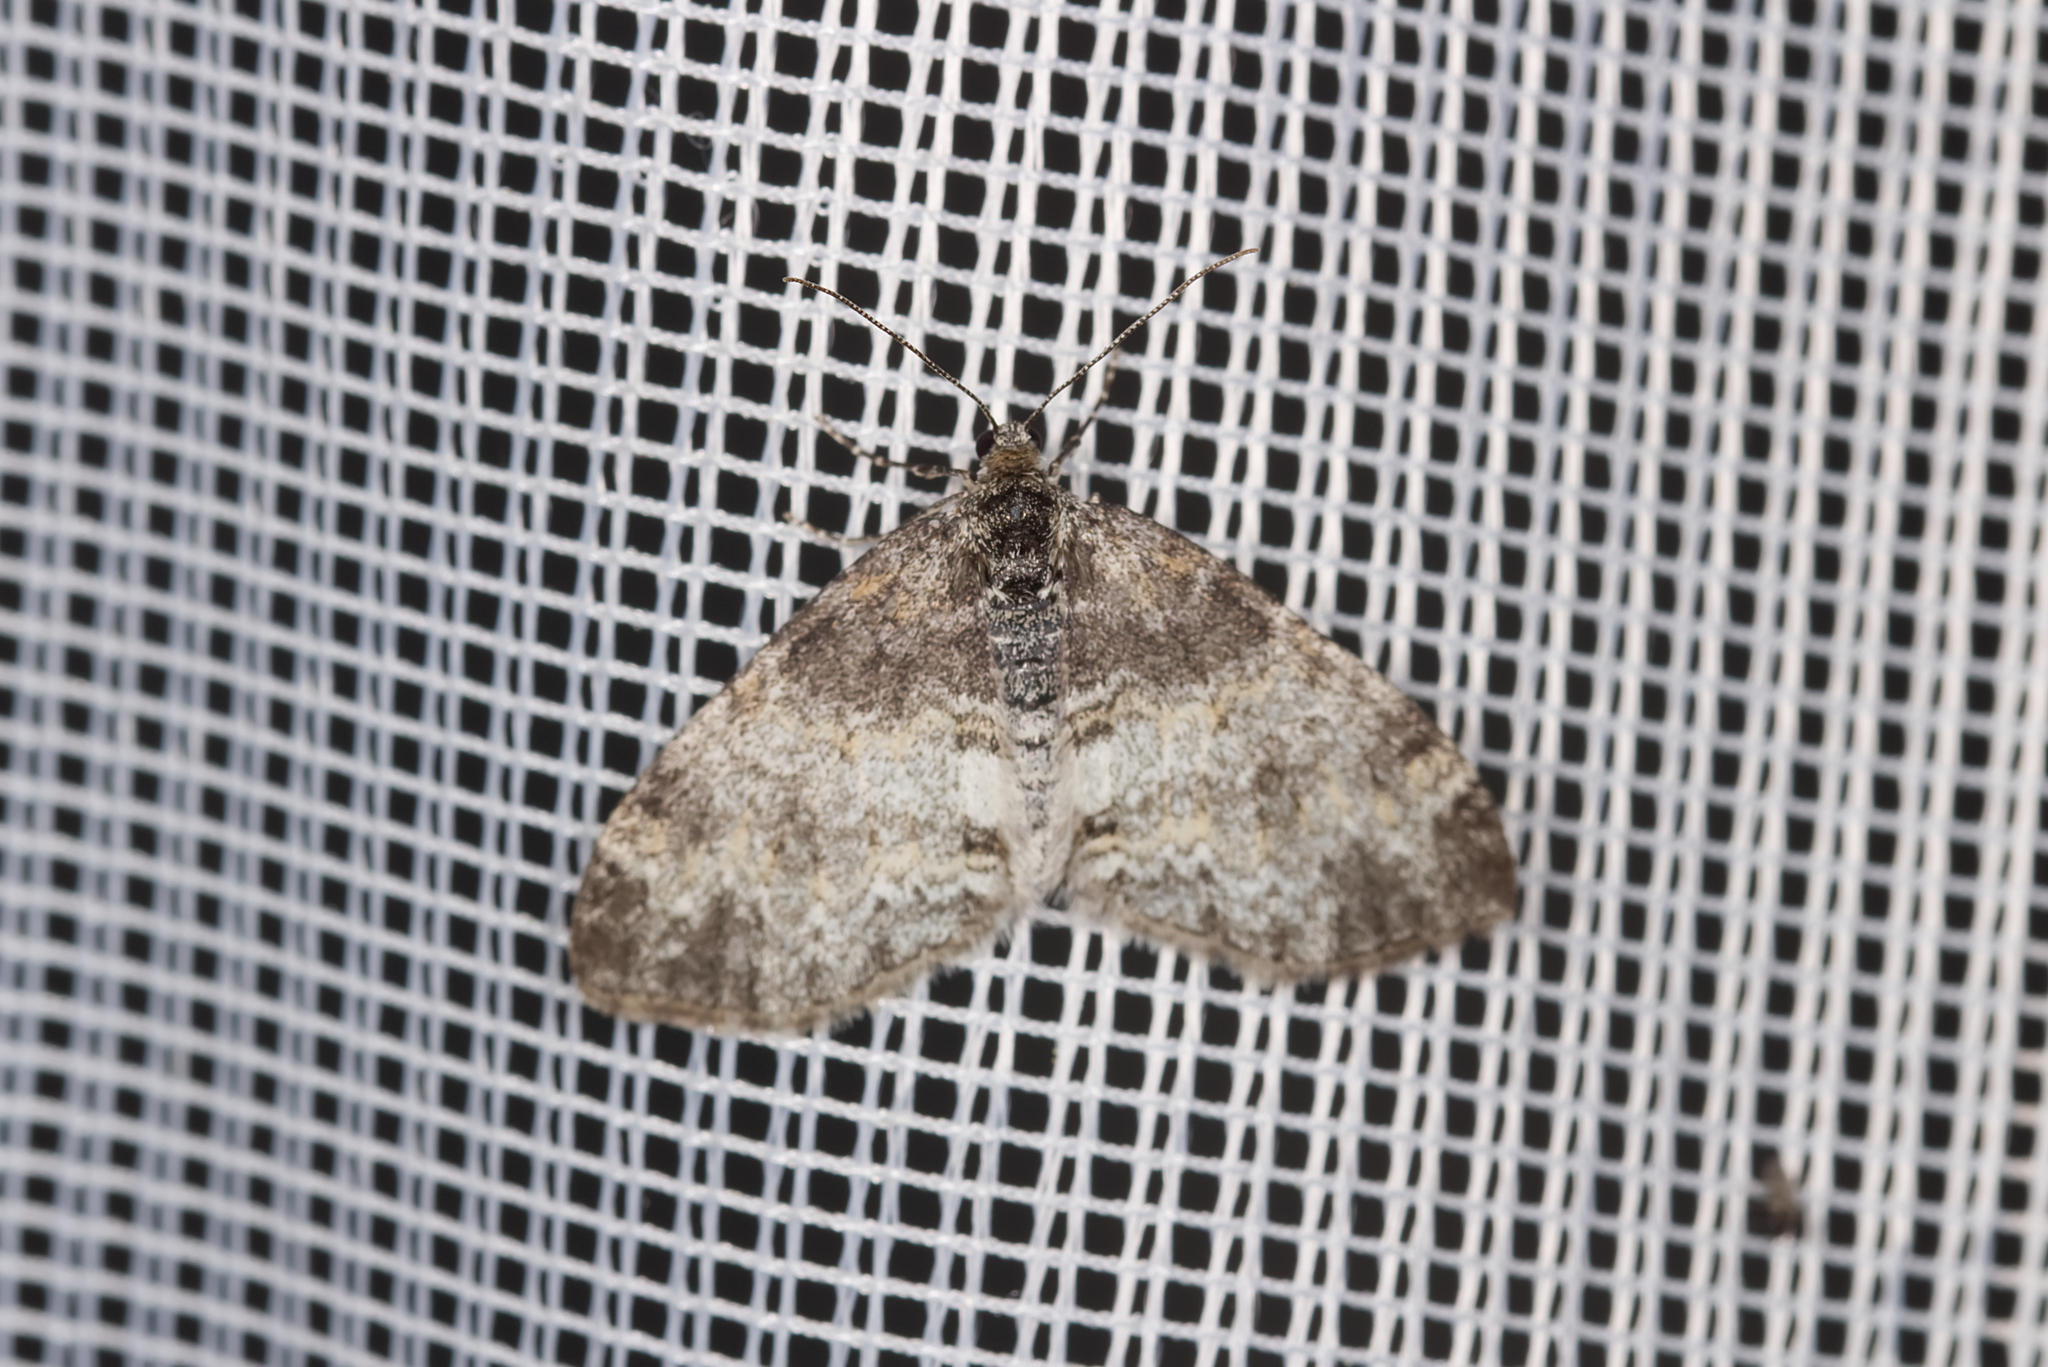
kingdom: Animalia
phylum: Arthropoda
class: Insecta
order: Lepidoptera
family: Geometridae
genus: Lobophora
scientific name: Lobophora halterata
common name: Seraphim
